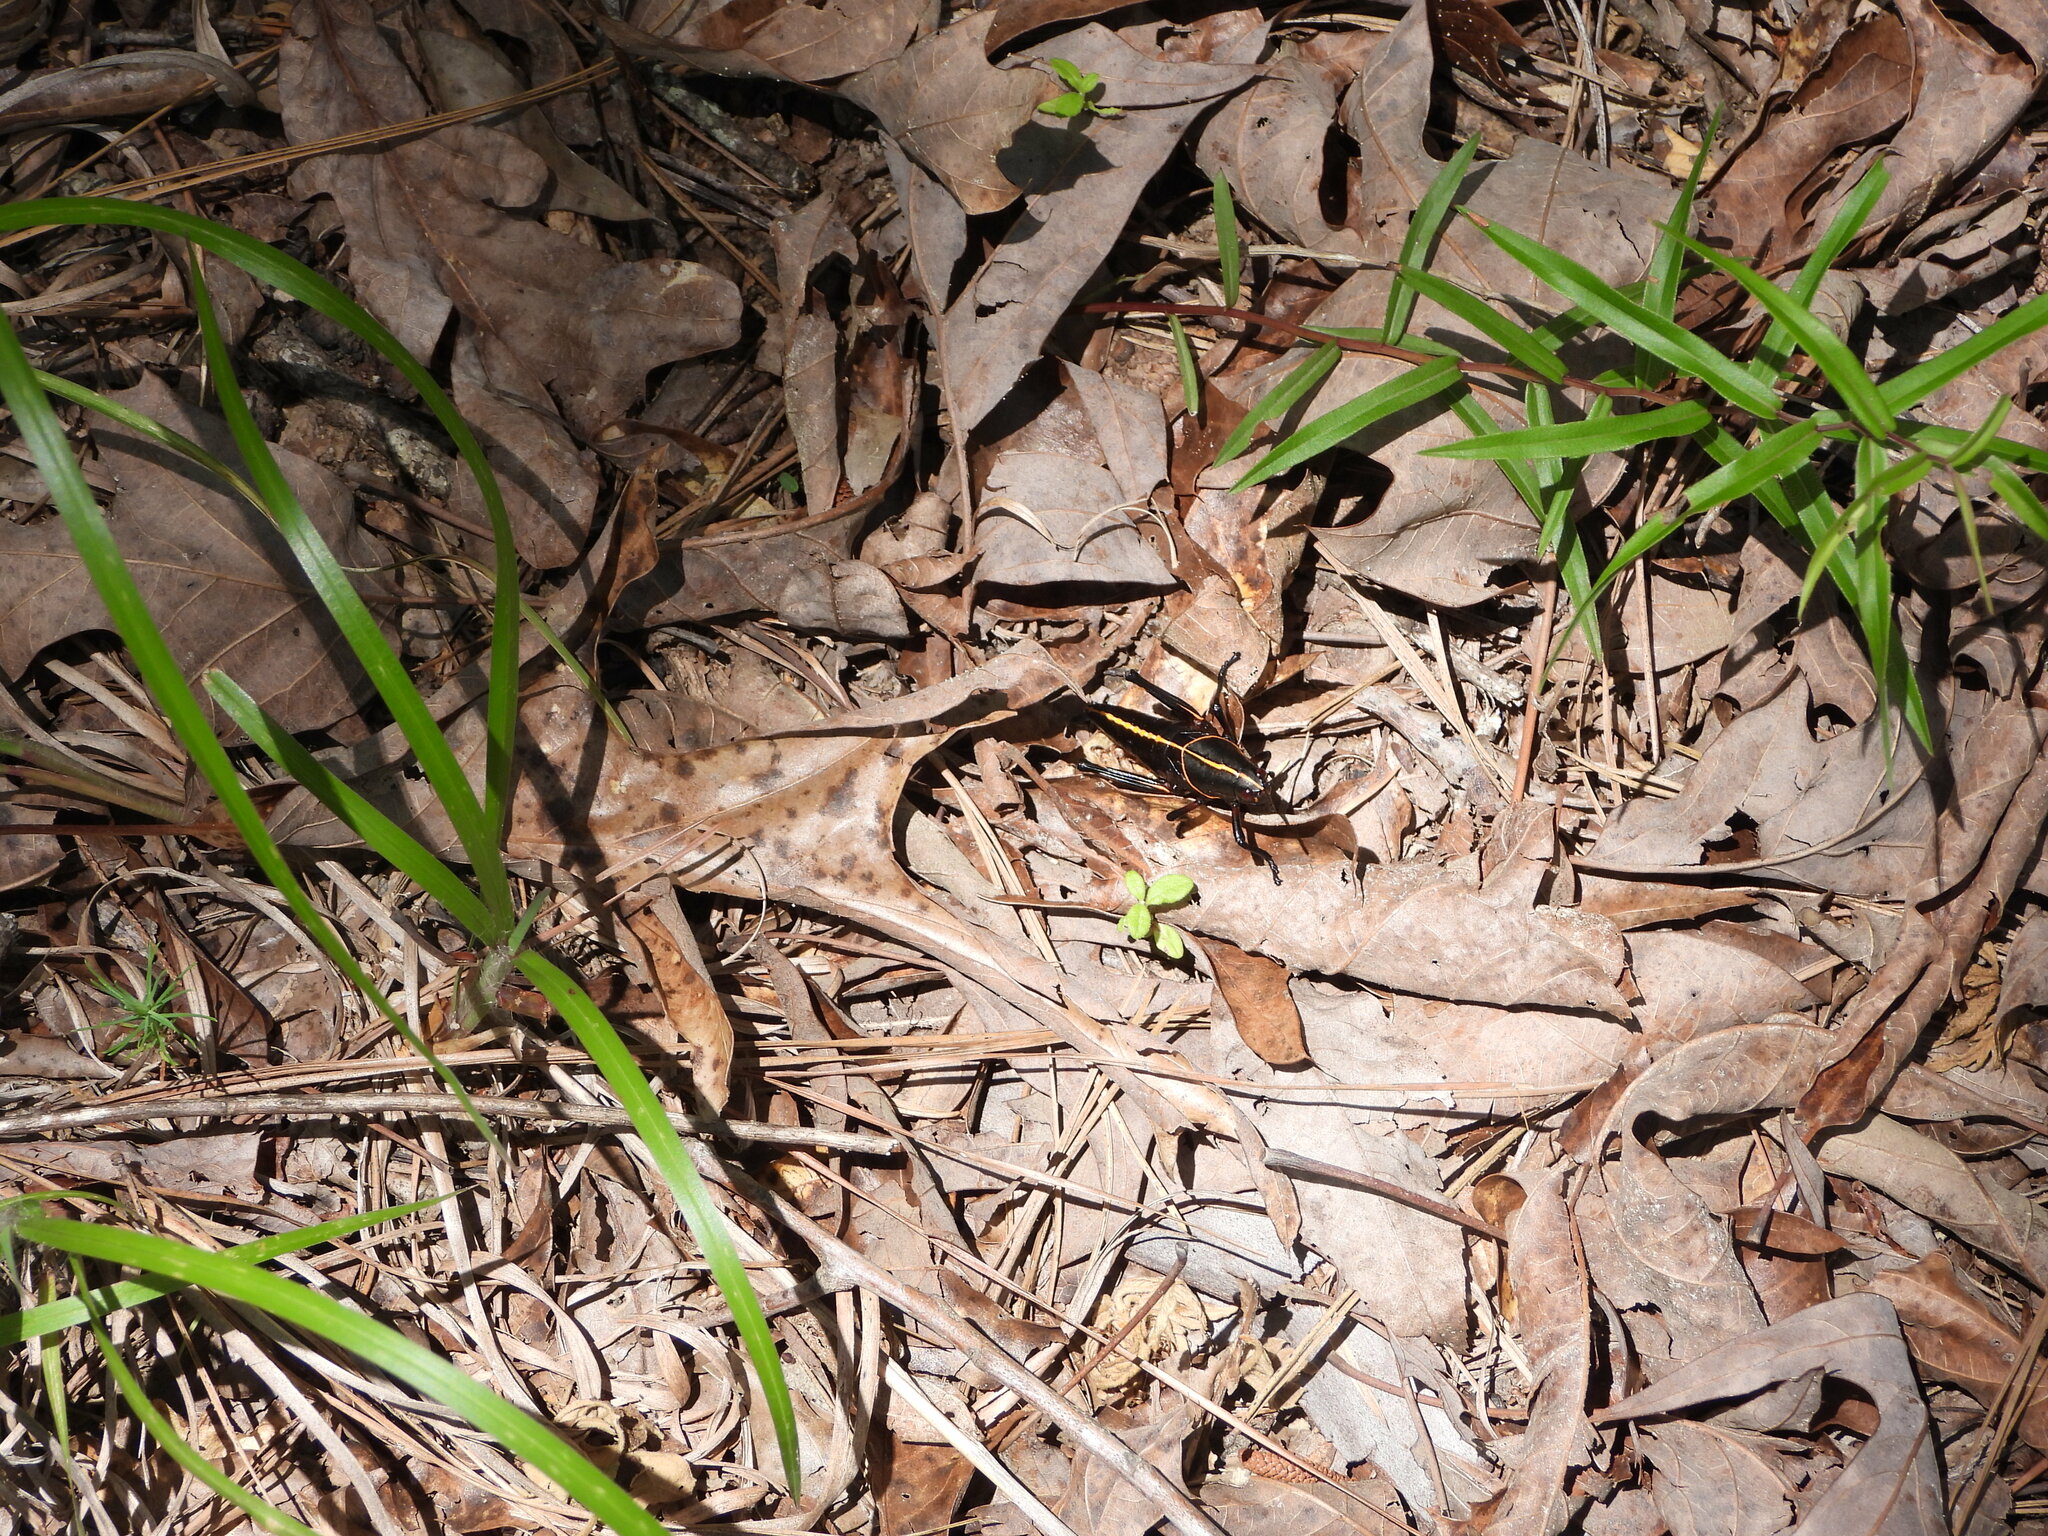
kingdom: Animalia
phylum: Arthropoda
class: Insecta
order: Orthoptera
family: Romaleidae
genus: Romalea
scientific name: Romalea microptera
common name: Eastern lubber grasshopper
